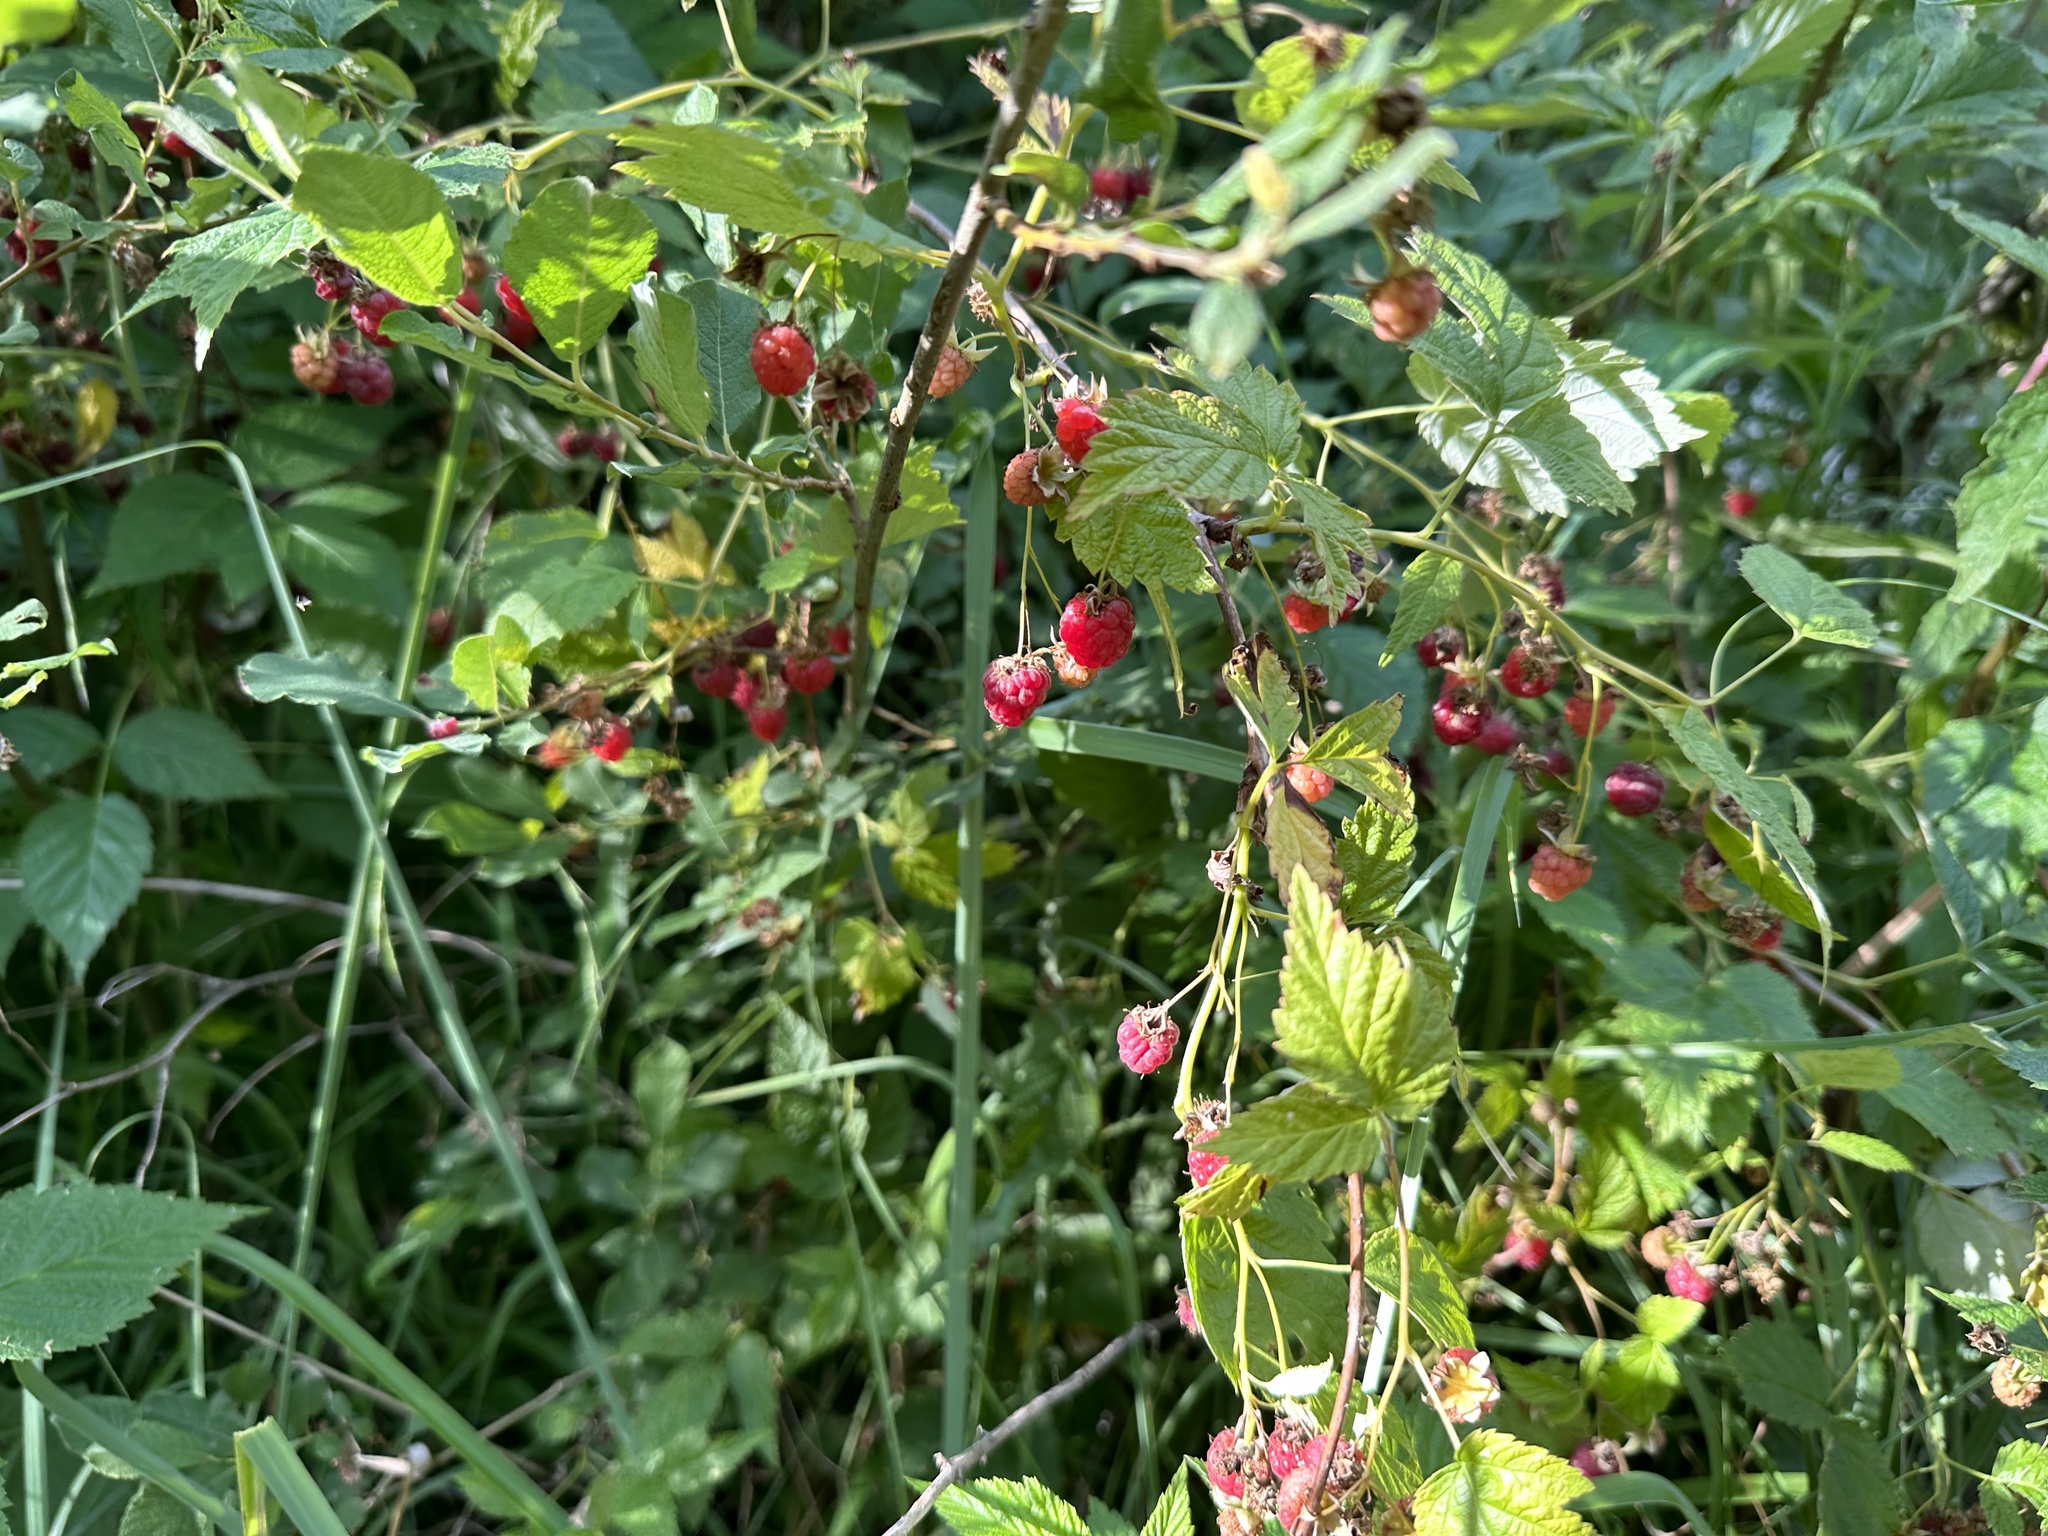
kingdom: Plantae
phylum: Tracheophyta
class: Magnoliopsida
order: Rosales
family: Rosaceae
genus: Rubus
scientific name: Rubus idaeus
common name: Raspberry
